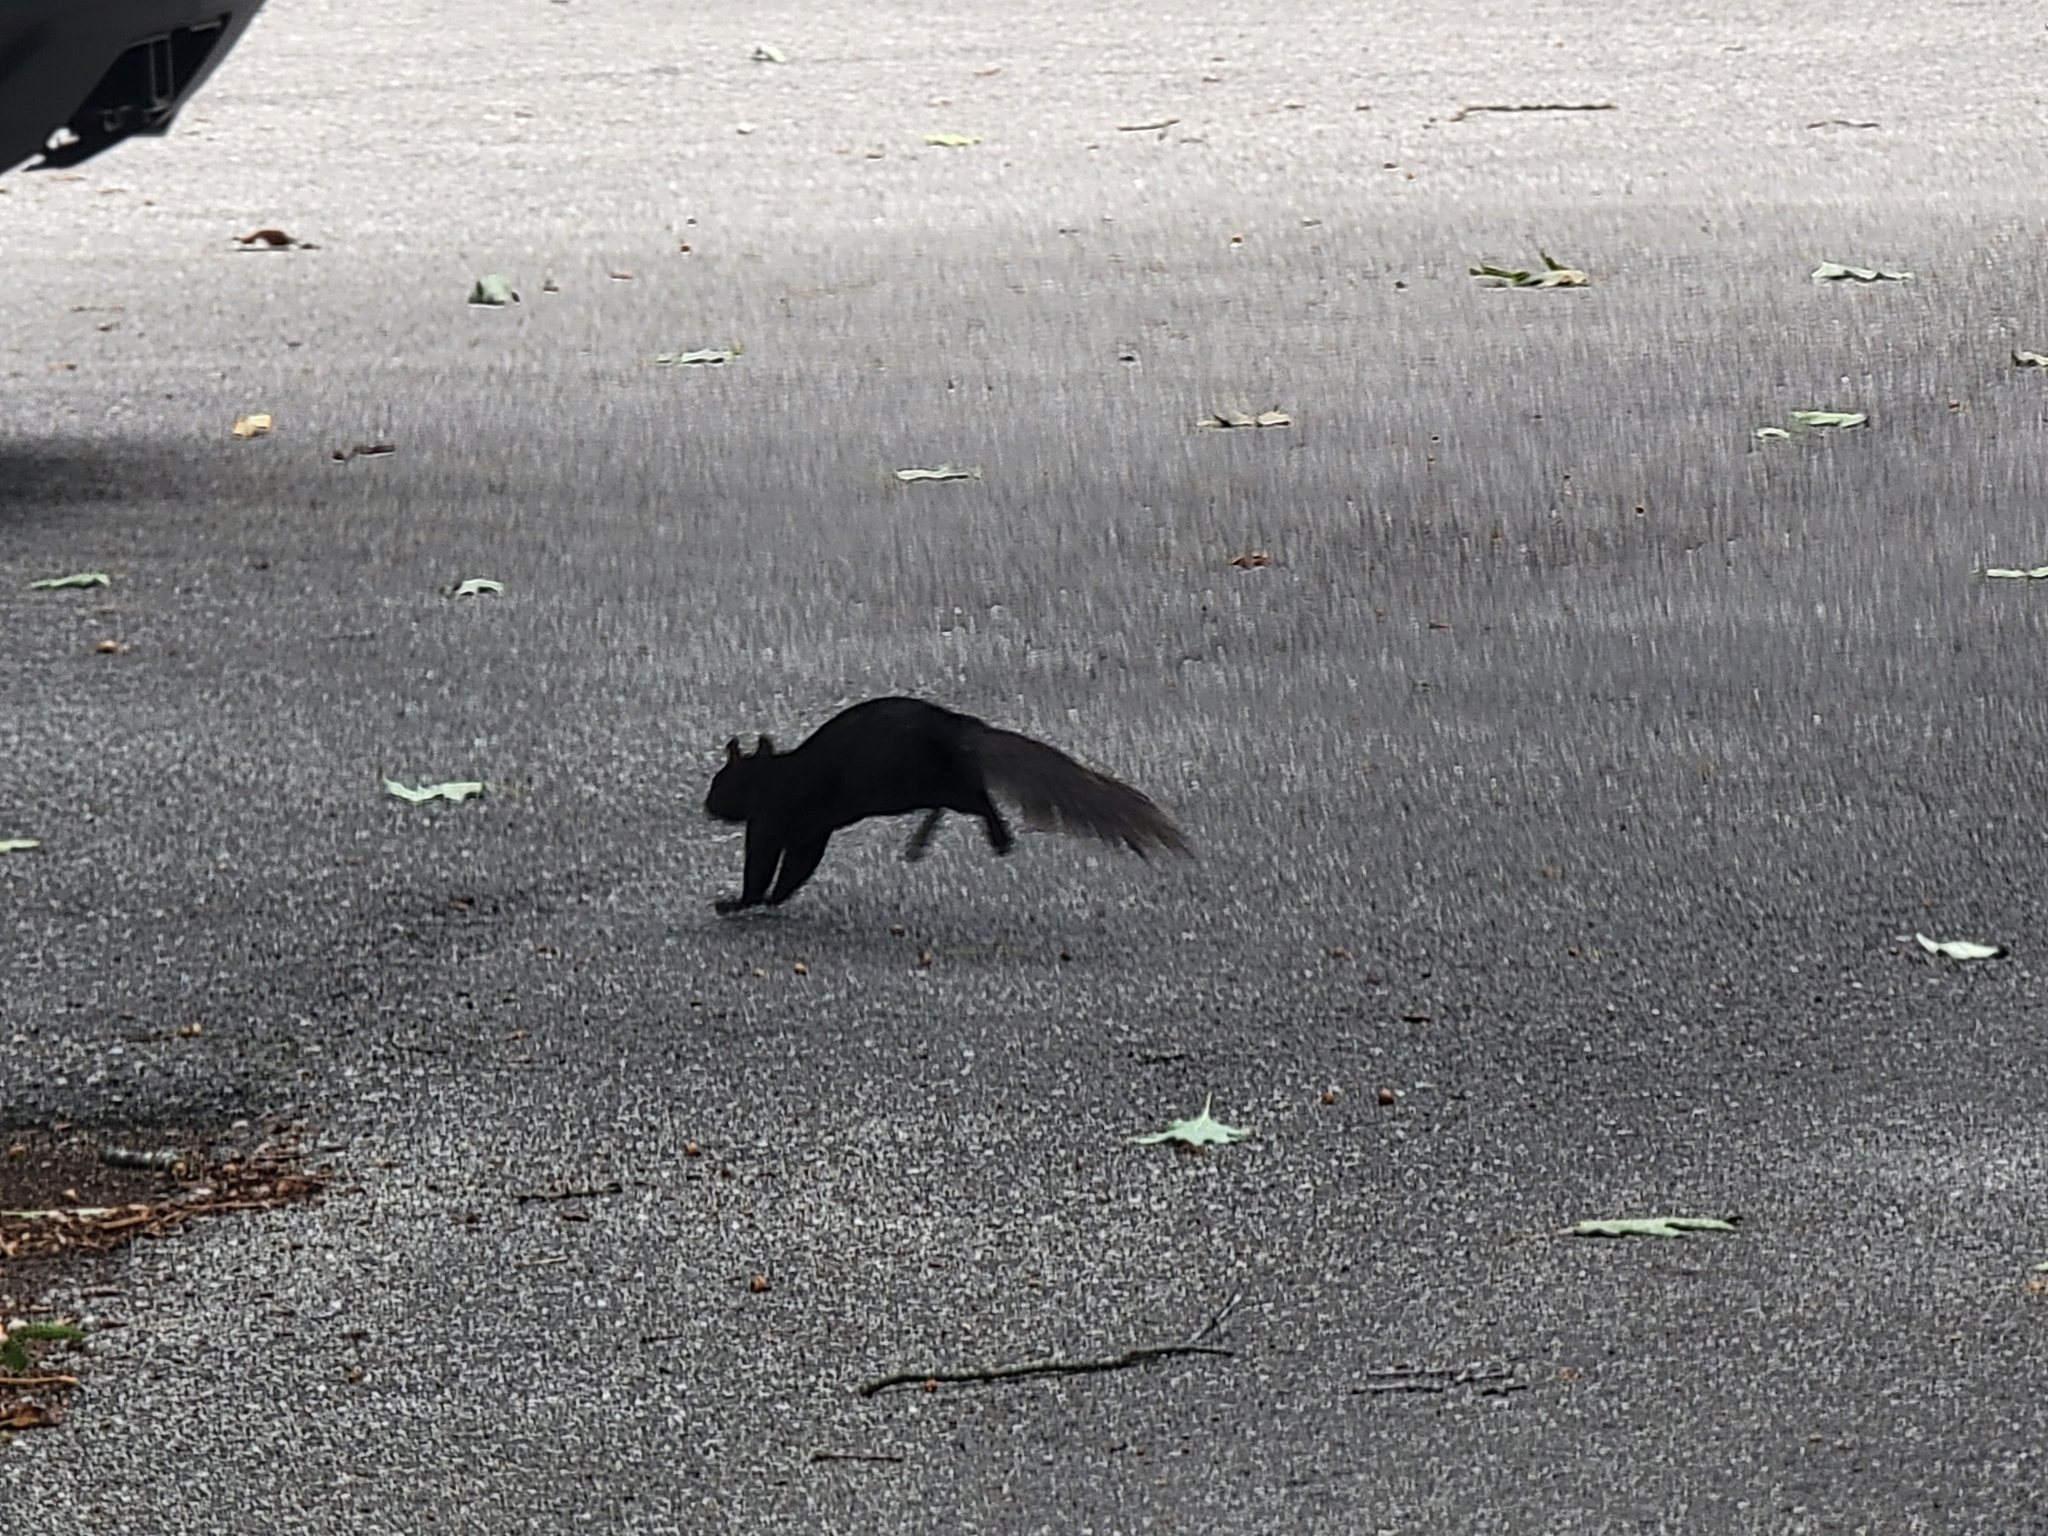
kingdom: Animalia
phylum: Chordata
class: Mammalia
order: Rodentia
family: Sciuridae
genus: Sciurus
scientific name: Sciurus carolinensis
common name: Eastern gray squirrel
